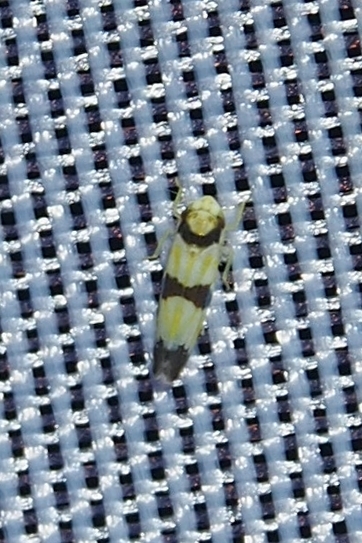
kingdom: Animalia
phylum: Arthropoda
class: Insecta
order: Hemiptera
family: Cicadellidae
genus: Erythroneura
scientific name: Erythroneura calycula
